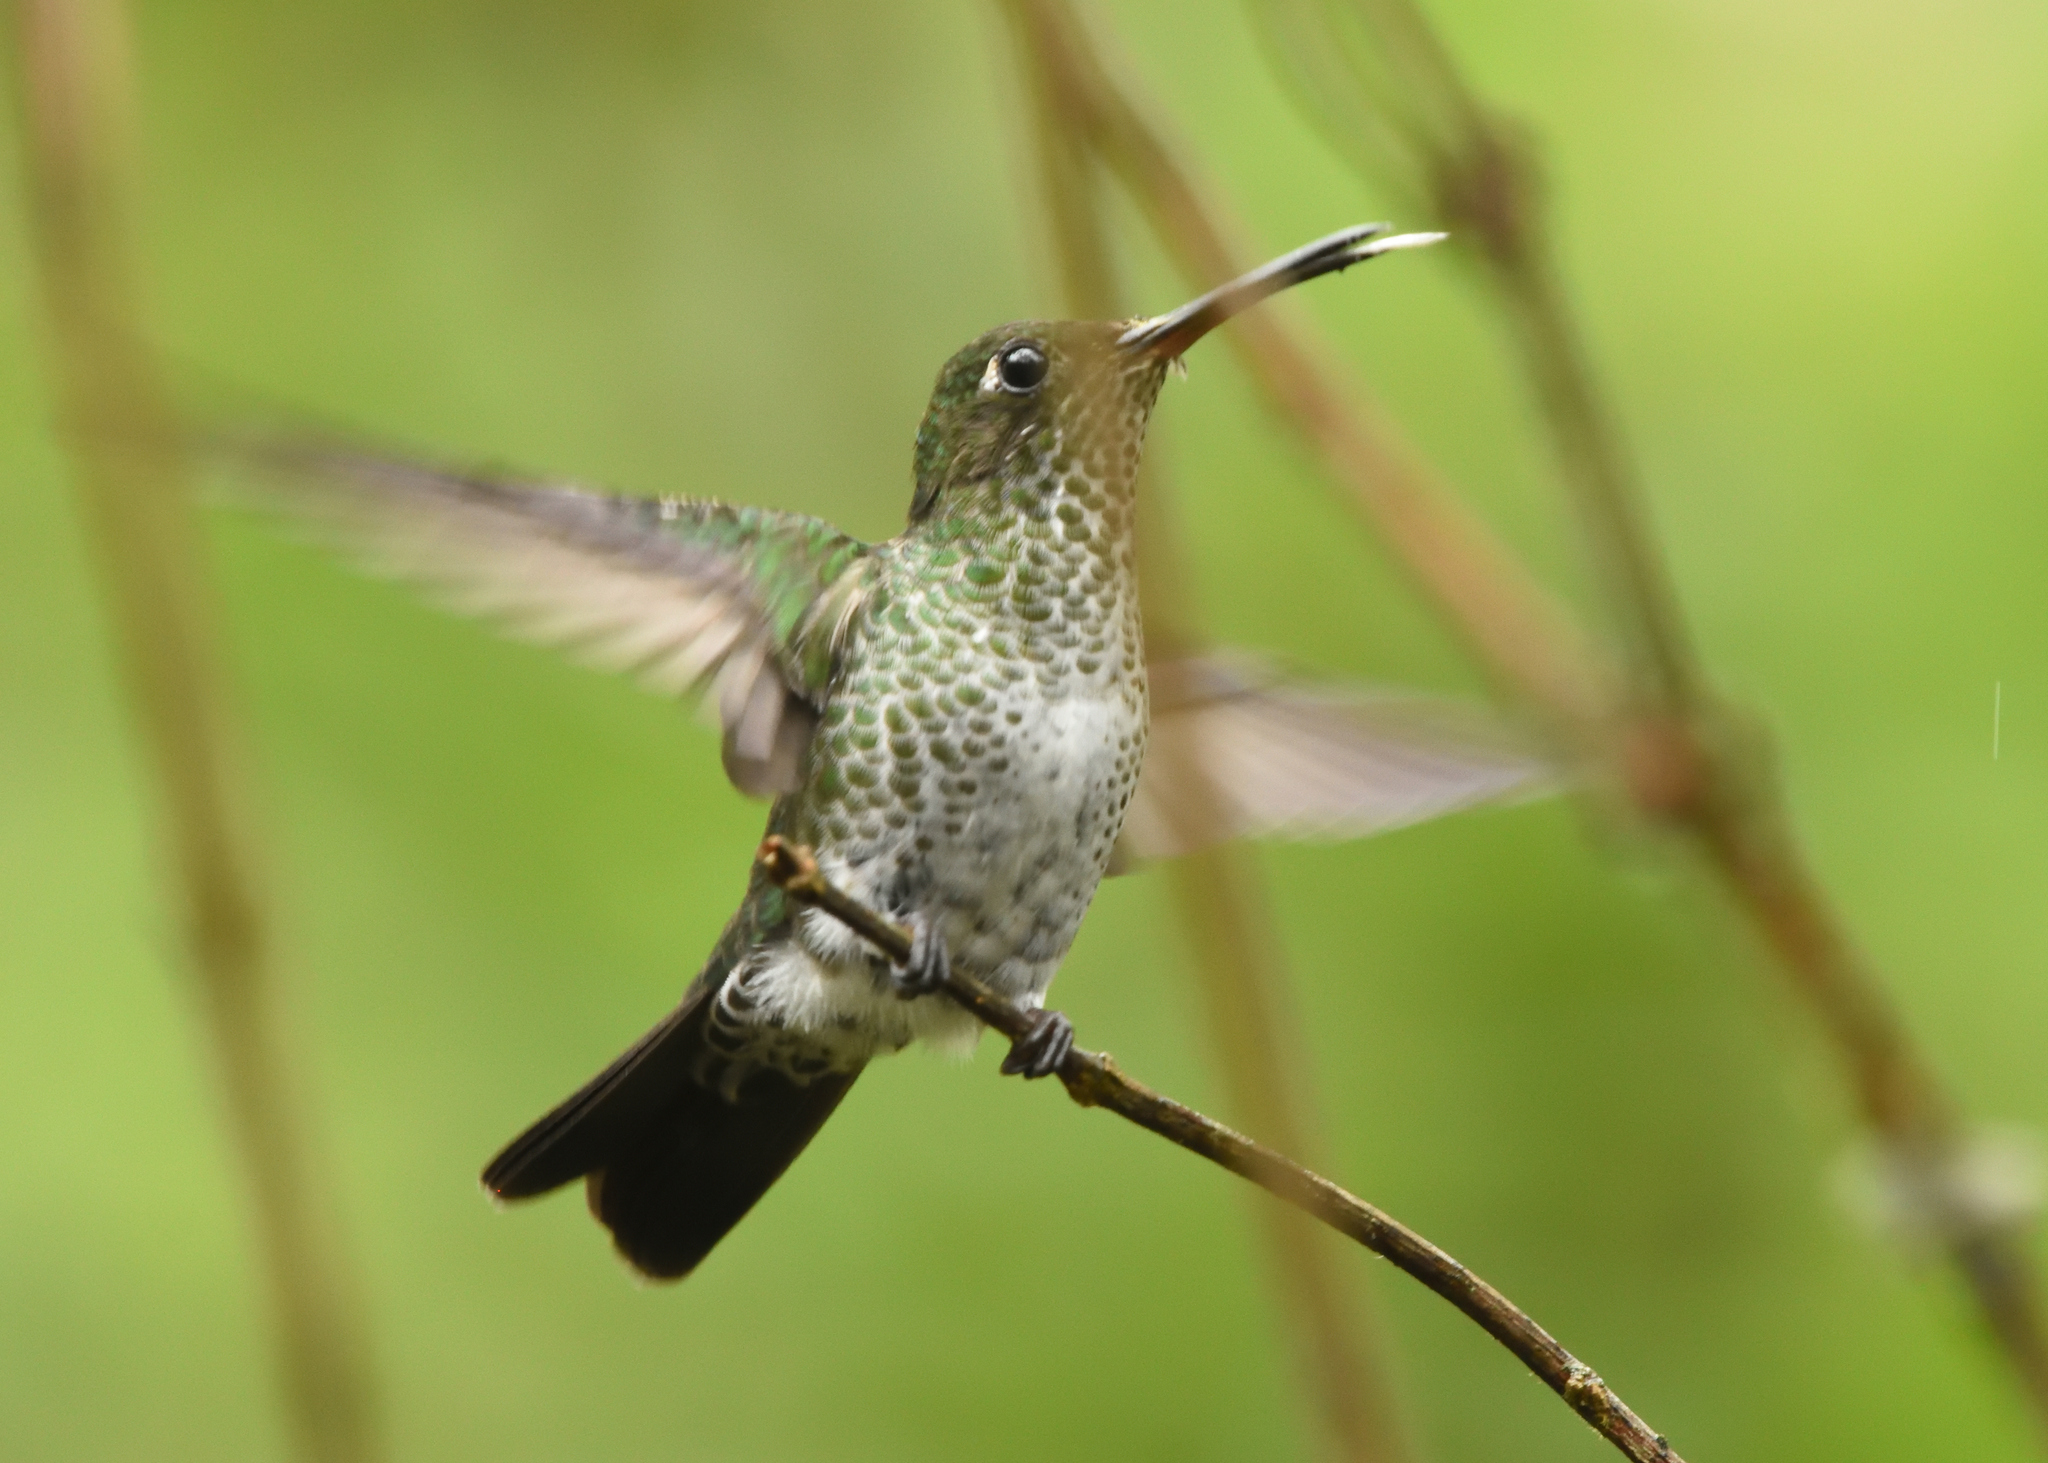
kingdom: Animalia
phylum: Chordata
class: Aves
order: Apodiformes
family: Trochilidae
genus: Taphrospilus
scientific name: Taphrospilus hypostictus
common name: Many-spotted hummingbird
